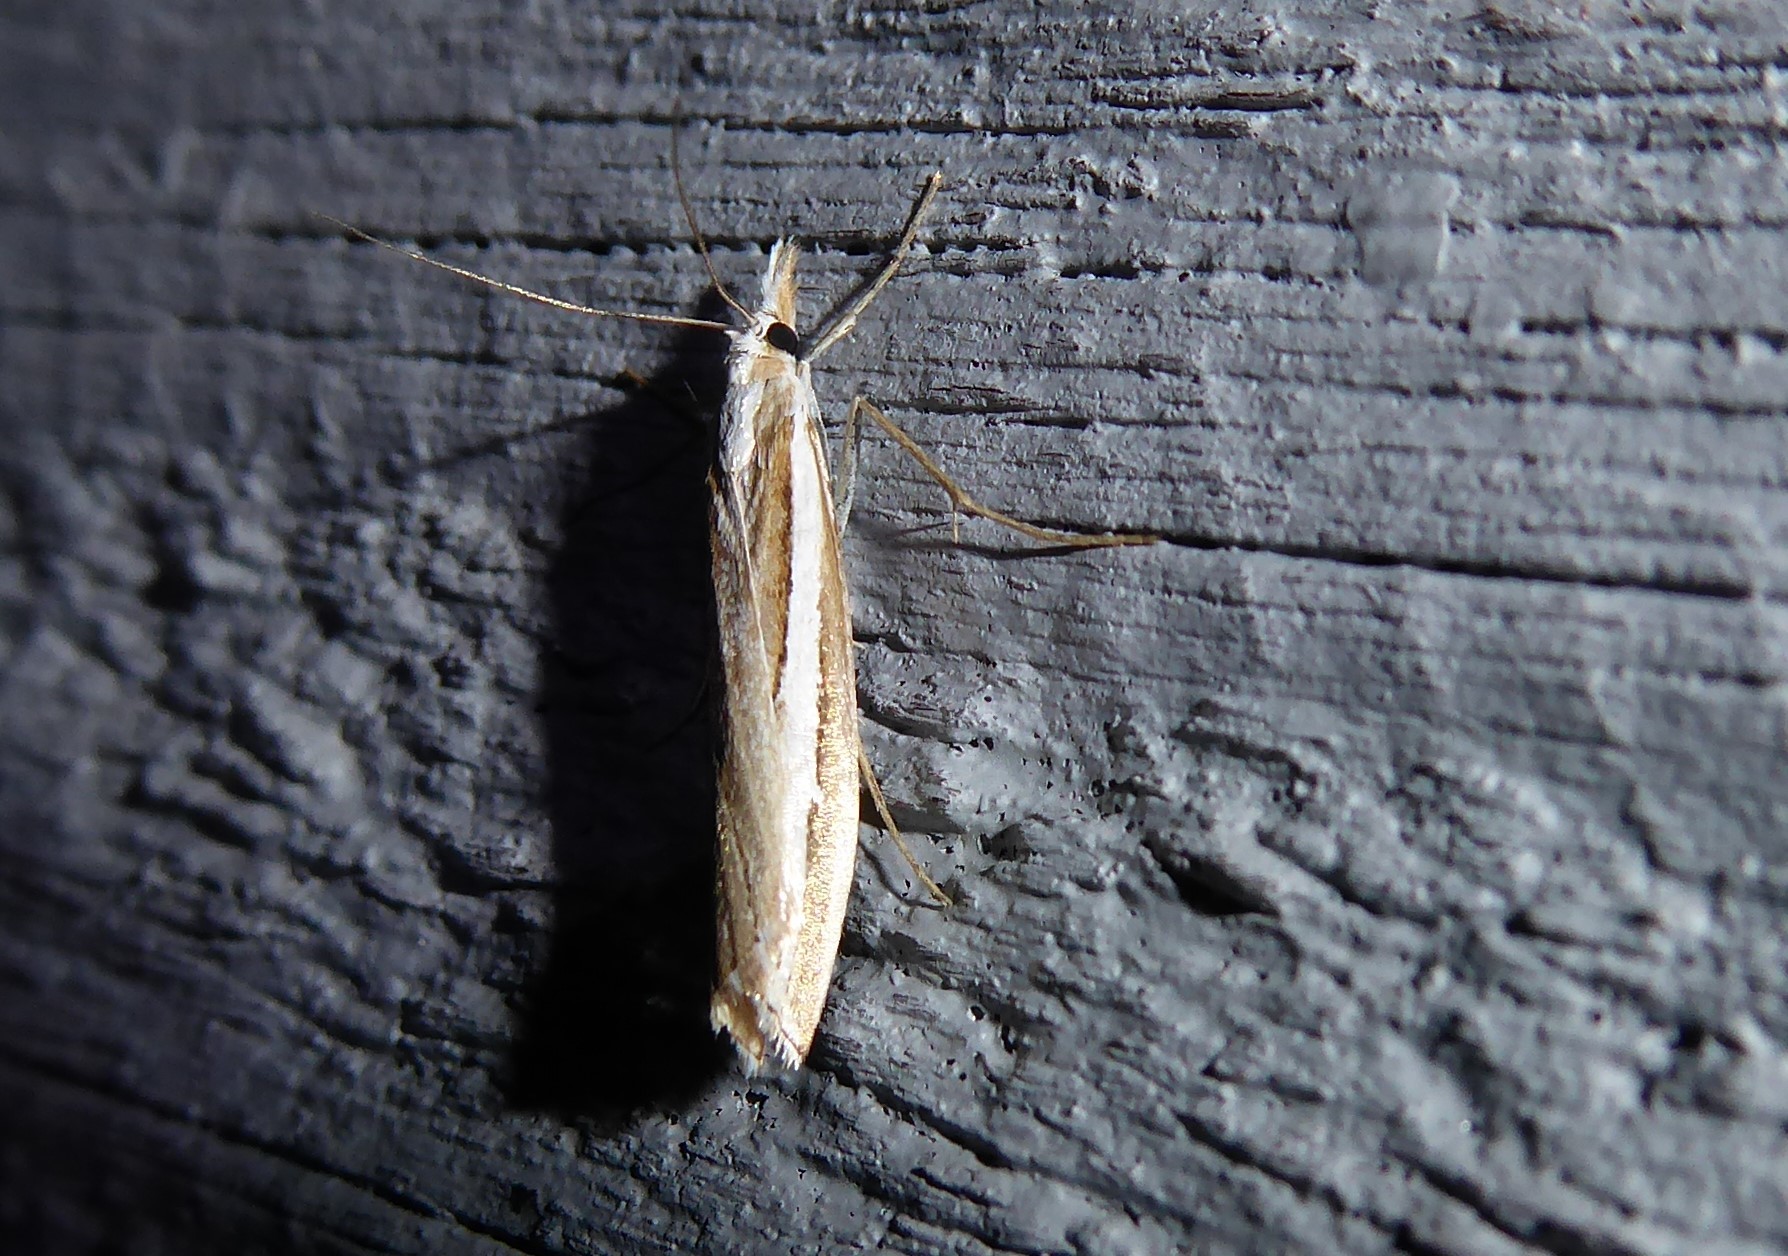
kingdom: Animalia
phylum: Arthropoda
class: Insecta
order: Lepidoptera
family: Crambidae
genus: Orocrambus
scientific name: Orocrambus vittellus
